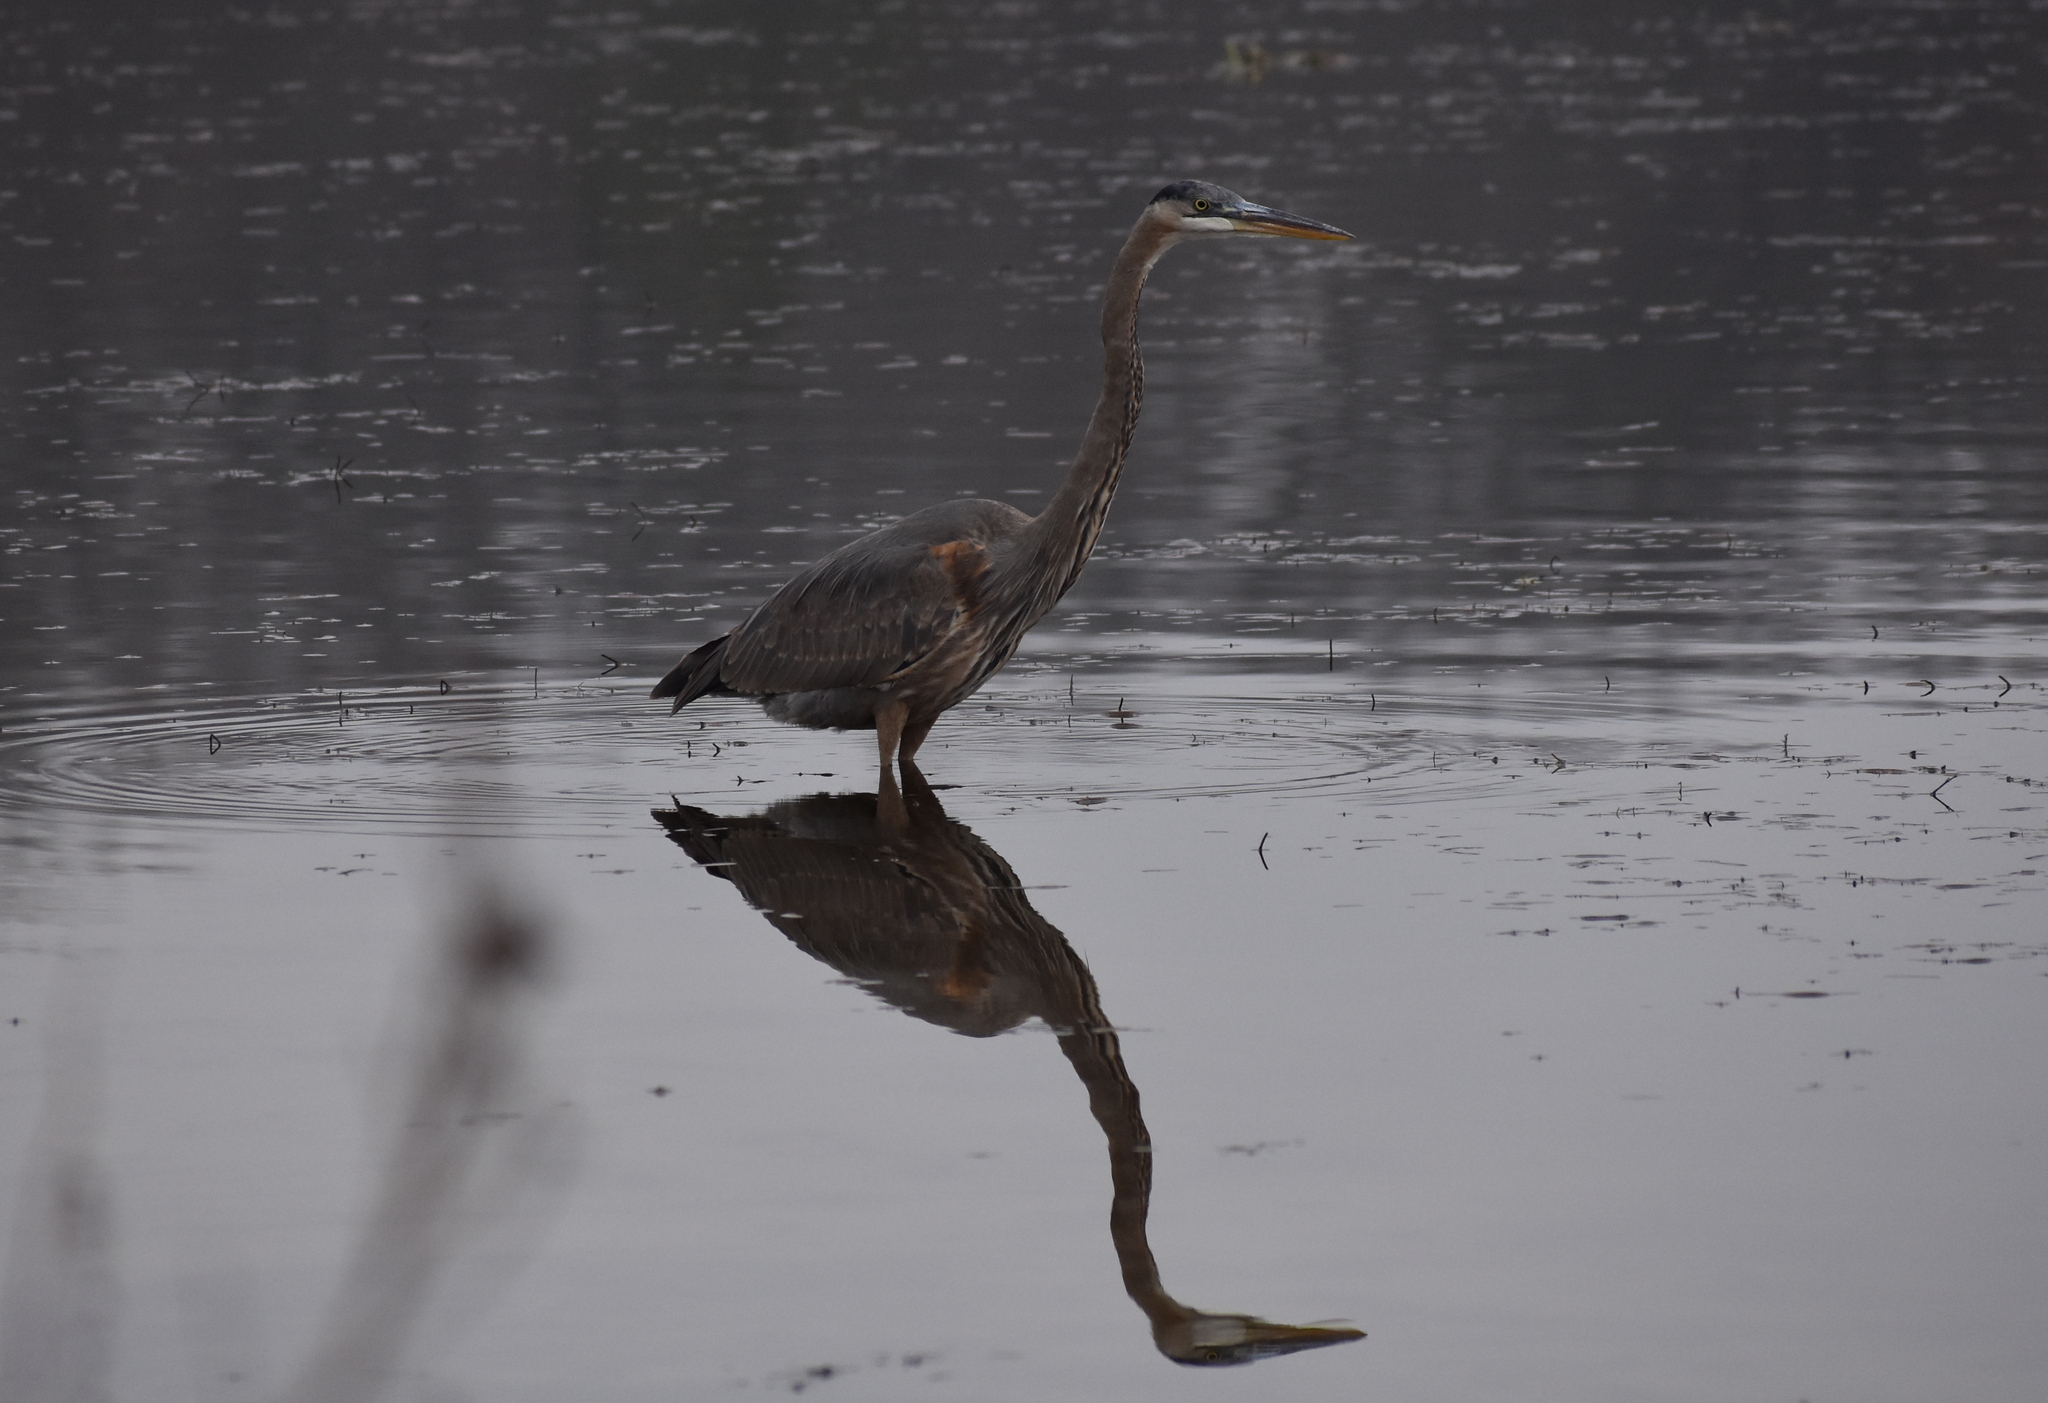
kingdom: Animalia
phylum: Chordata
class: Aves
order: Pelecaniformes
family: Ardeidae
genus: Ardea
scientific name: Ardea herodias
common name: Great blue heron
